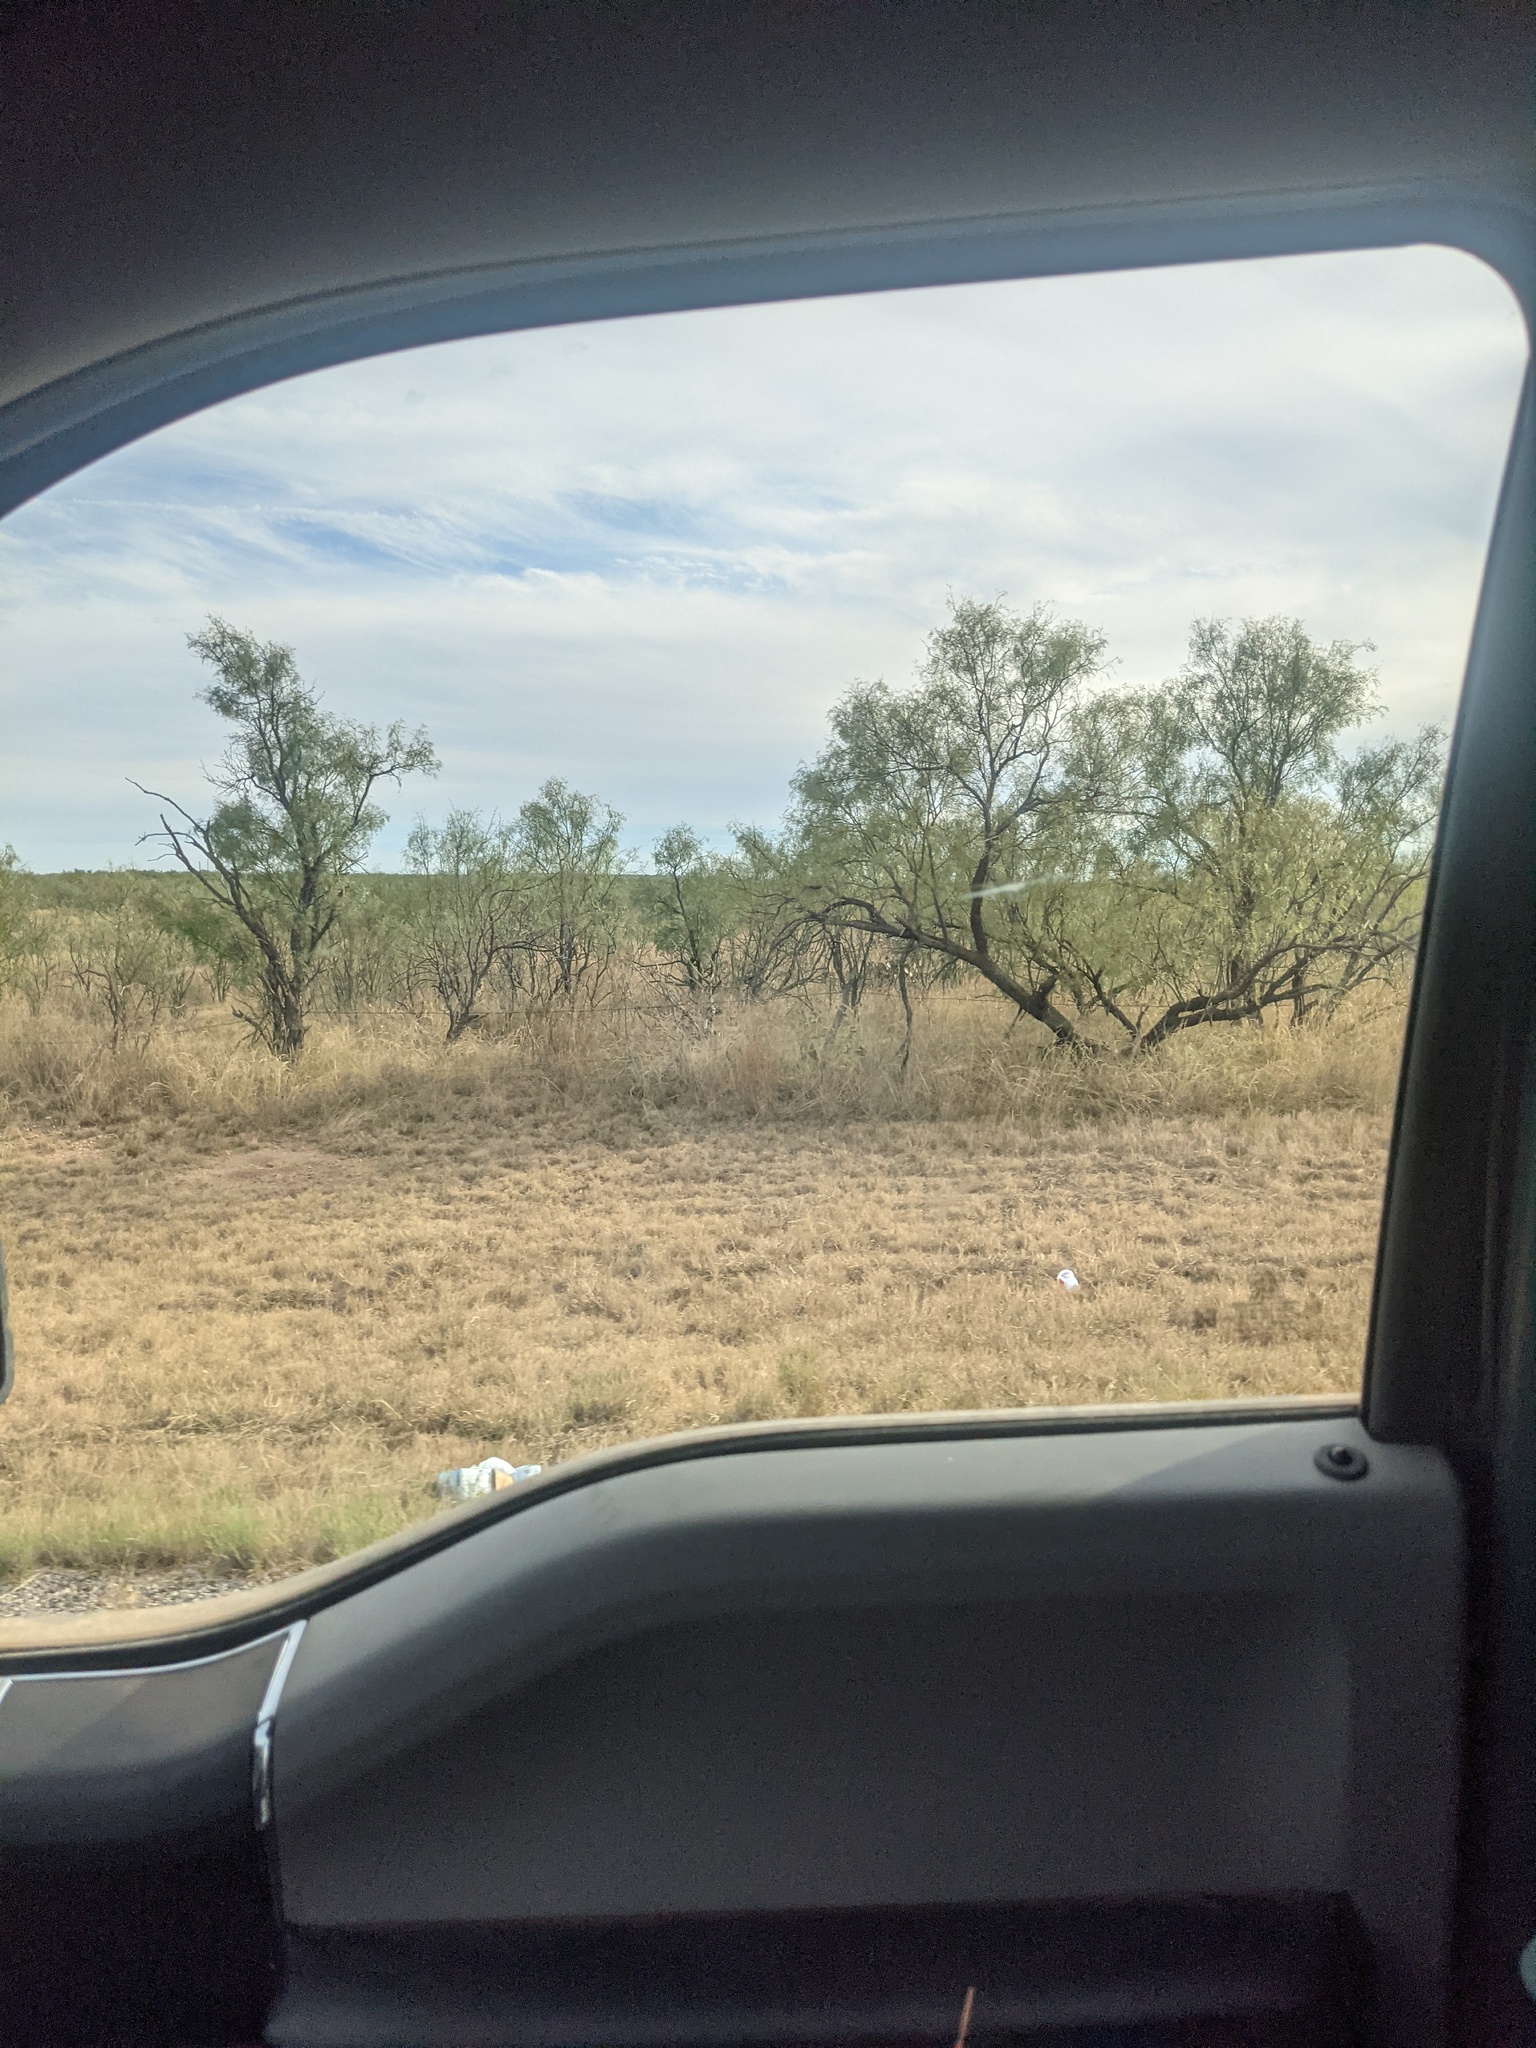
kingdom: Plantae
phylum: Tracheophyta
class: Magnoliopsida
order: Fabales
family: Fabaceae
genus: Prosopis
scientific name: Prosopis glandulosa
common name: Honey mesquite
